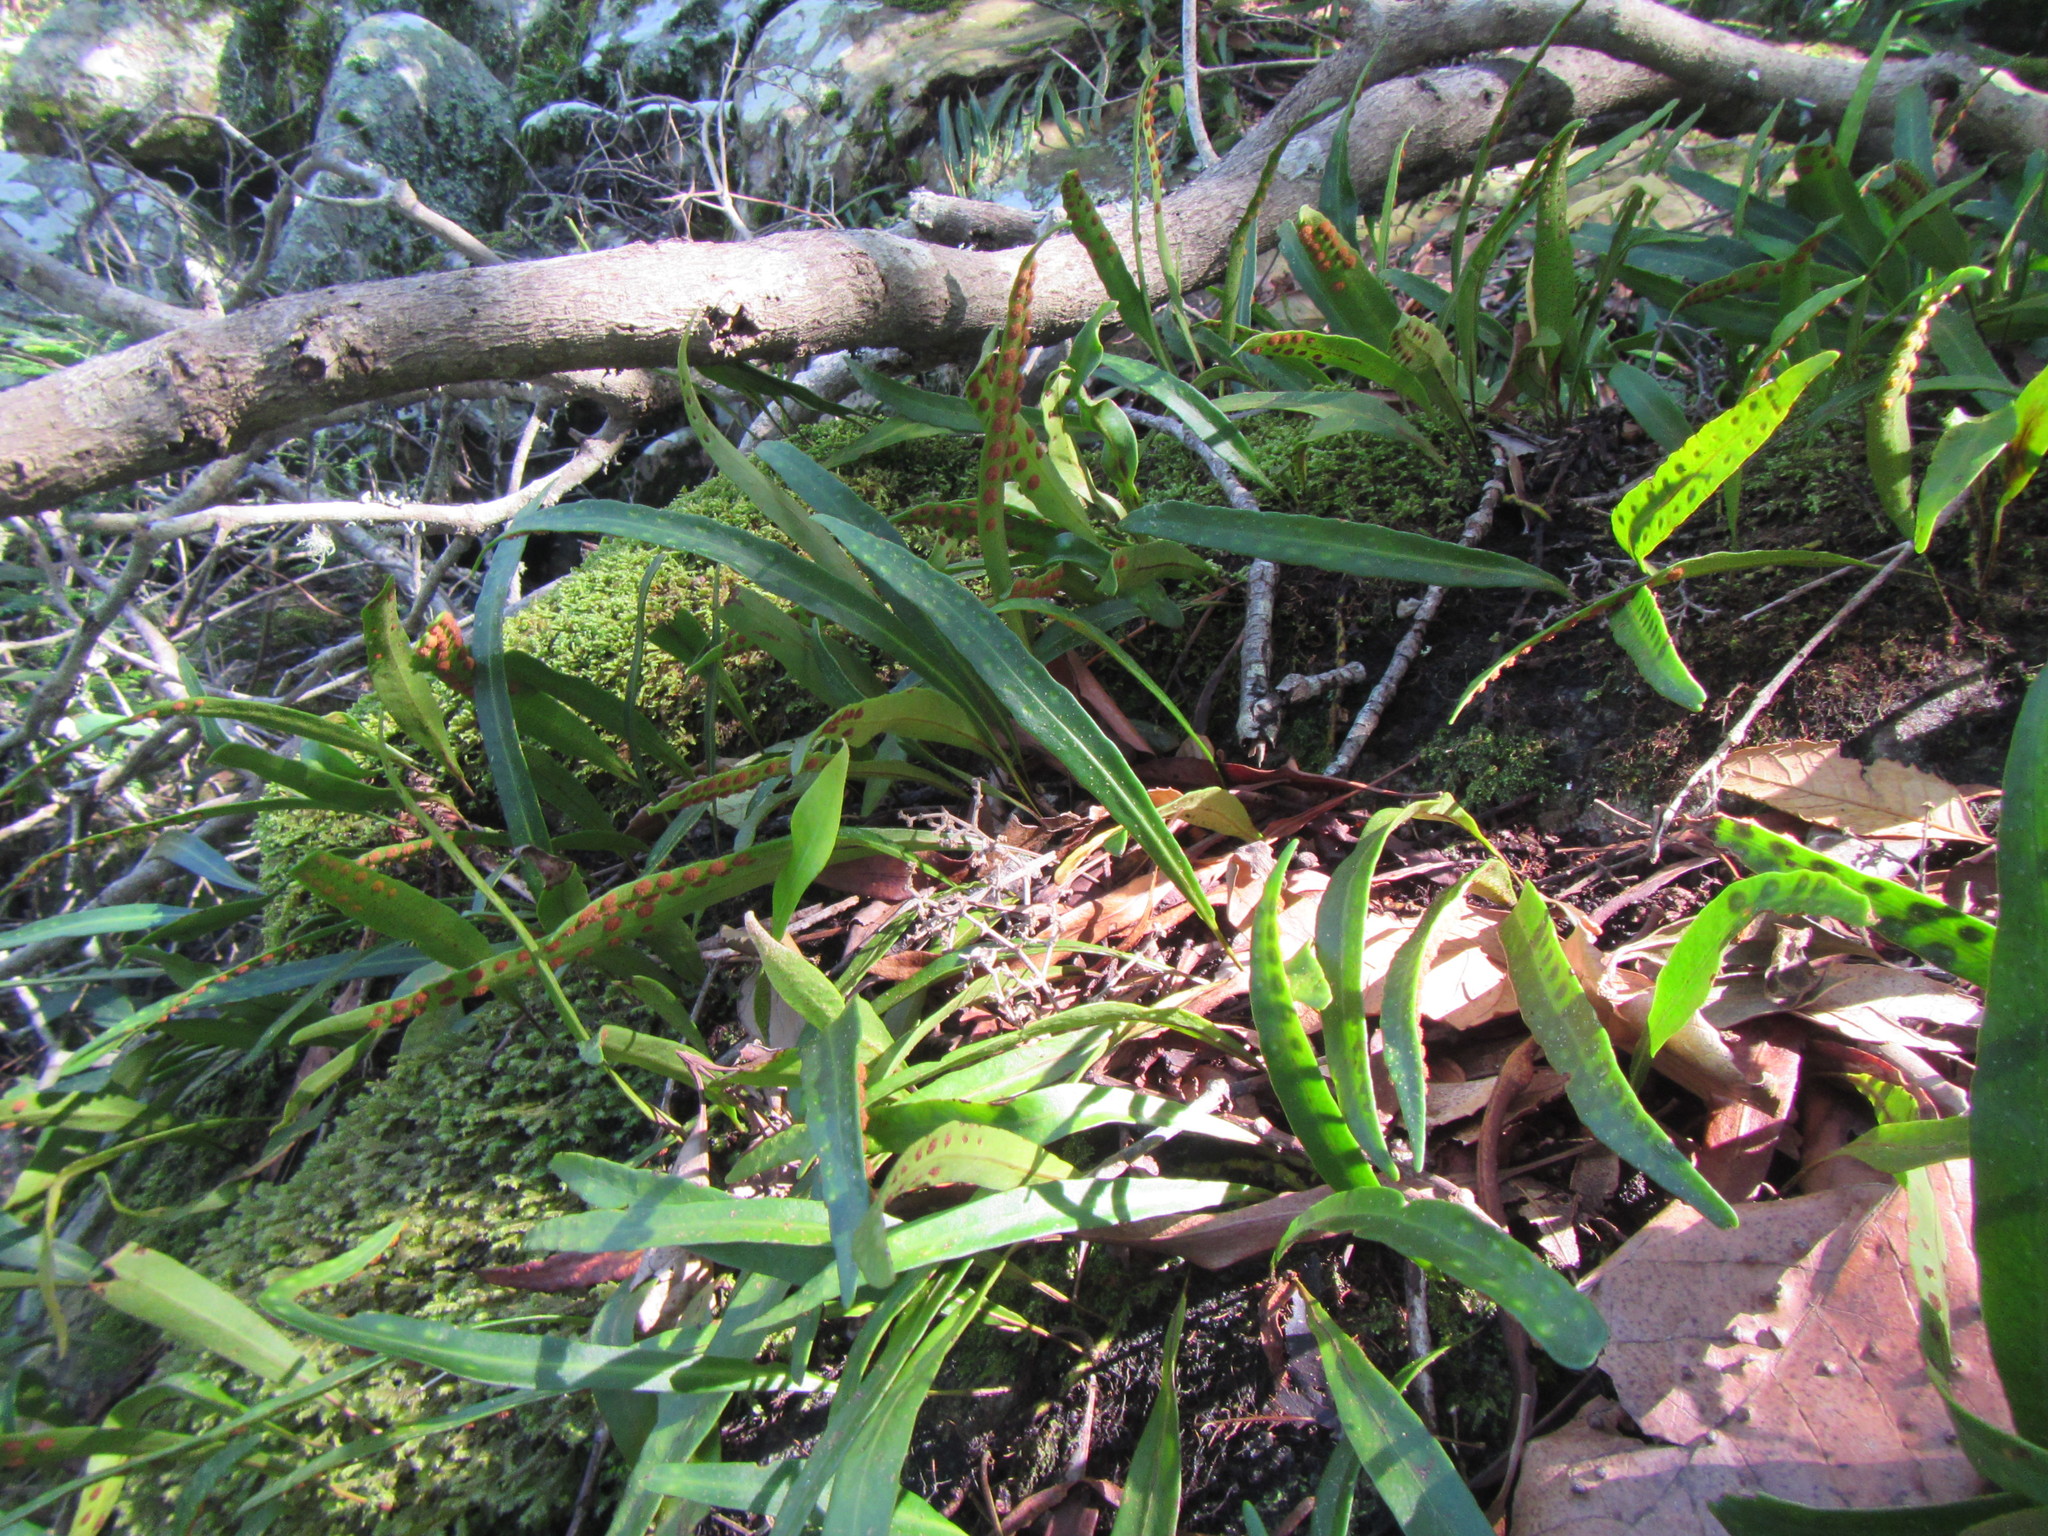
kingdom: Plantae
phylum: Tracheophyta
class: Polypodiopsida
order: Polypodiales
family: Polypodiaceae
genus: Pleopeltis
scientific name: Pleopeltis macrocarpa
